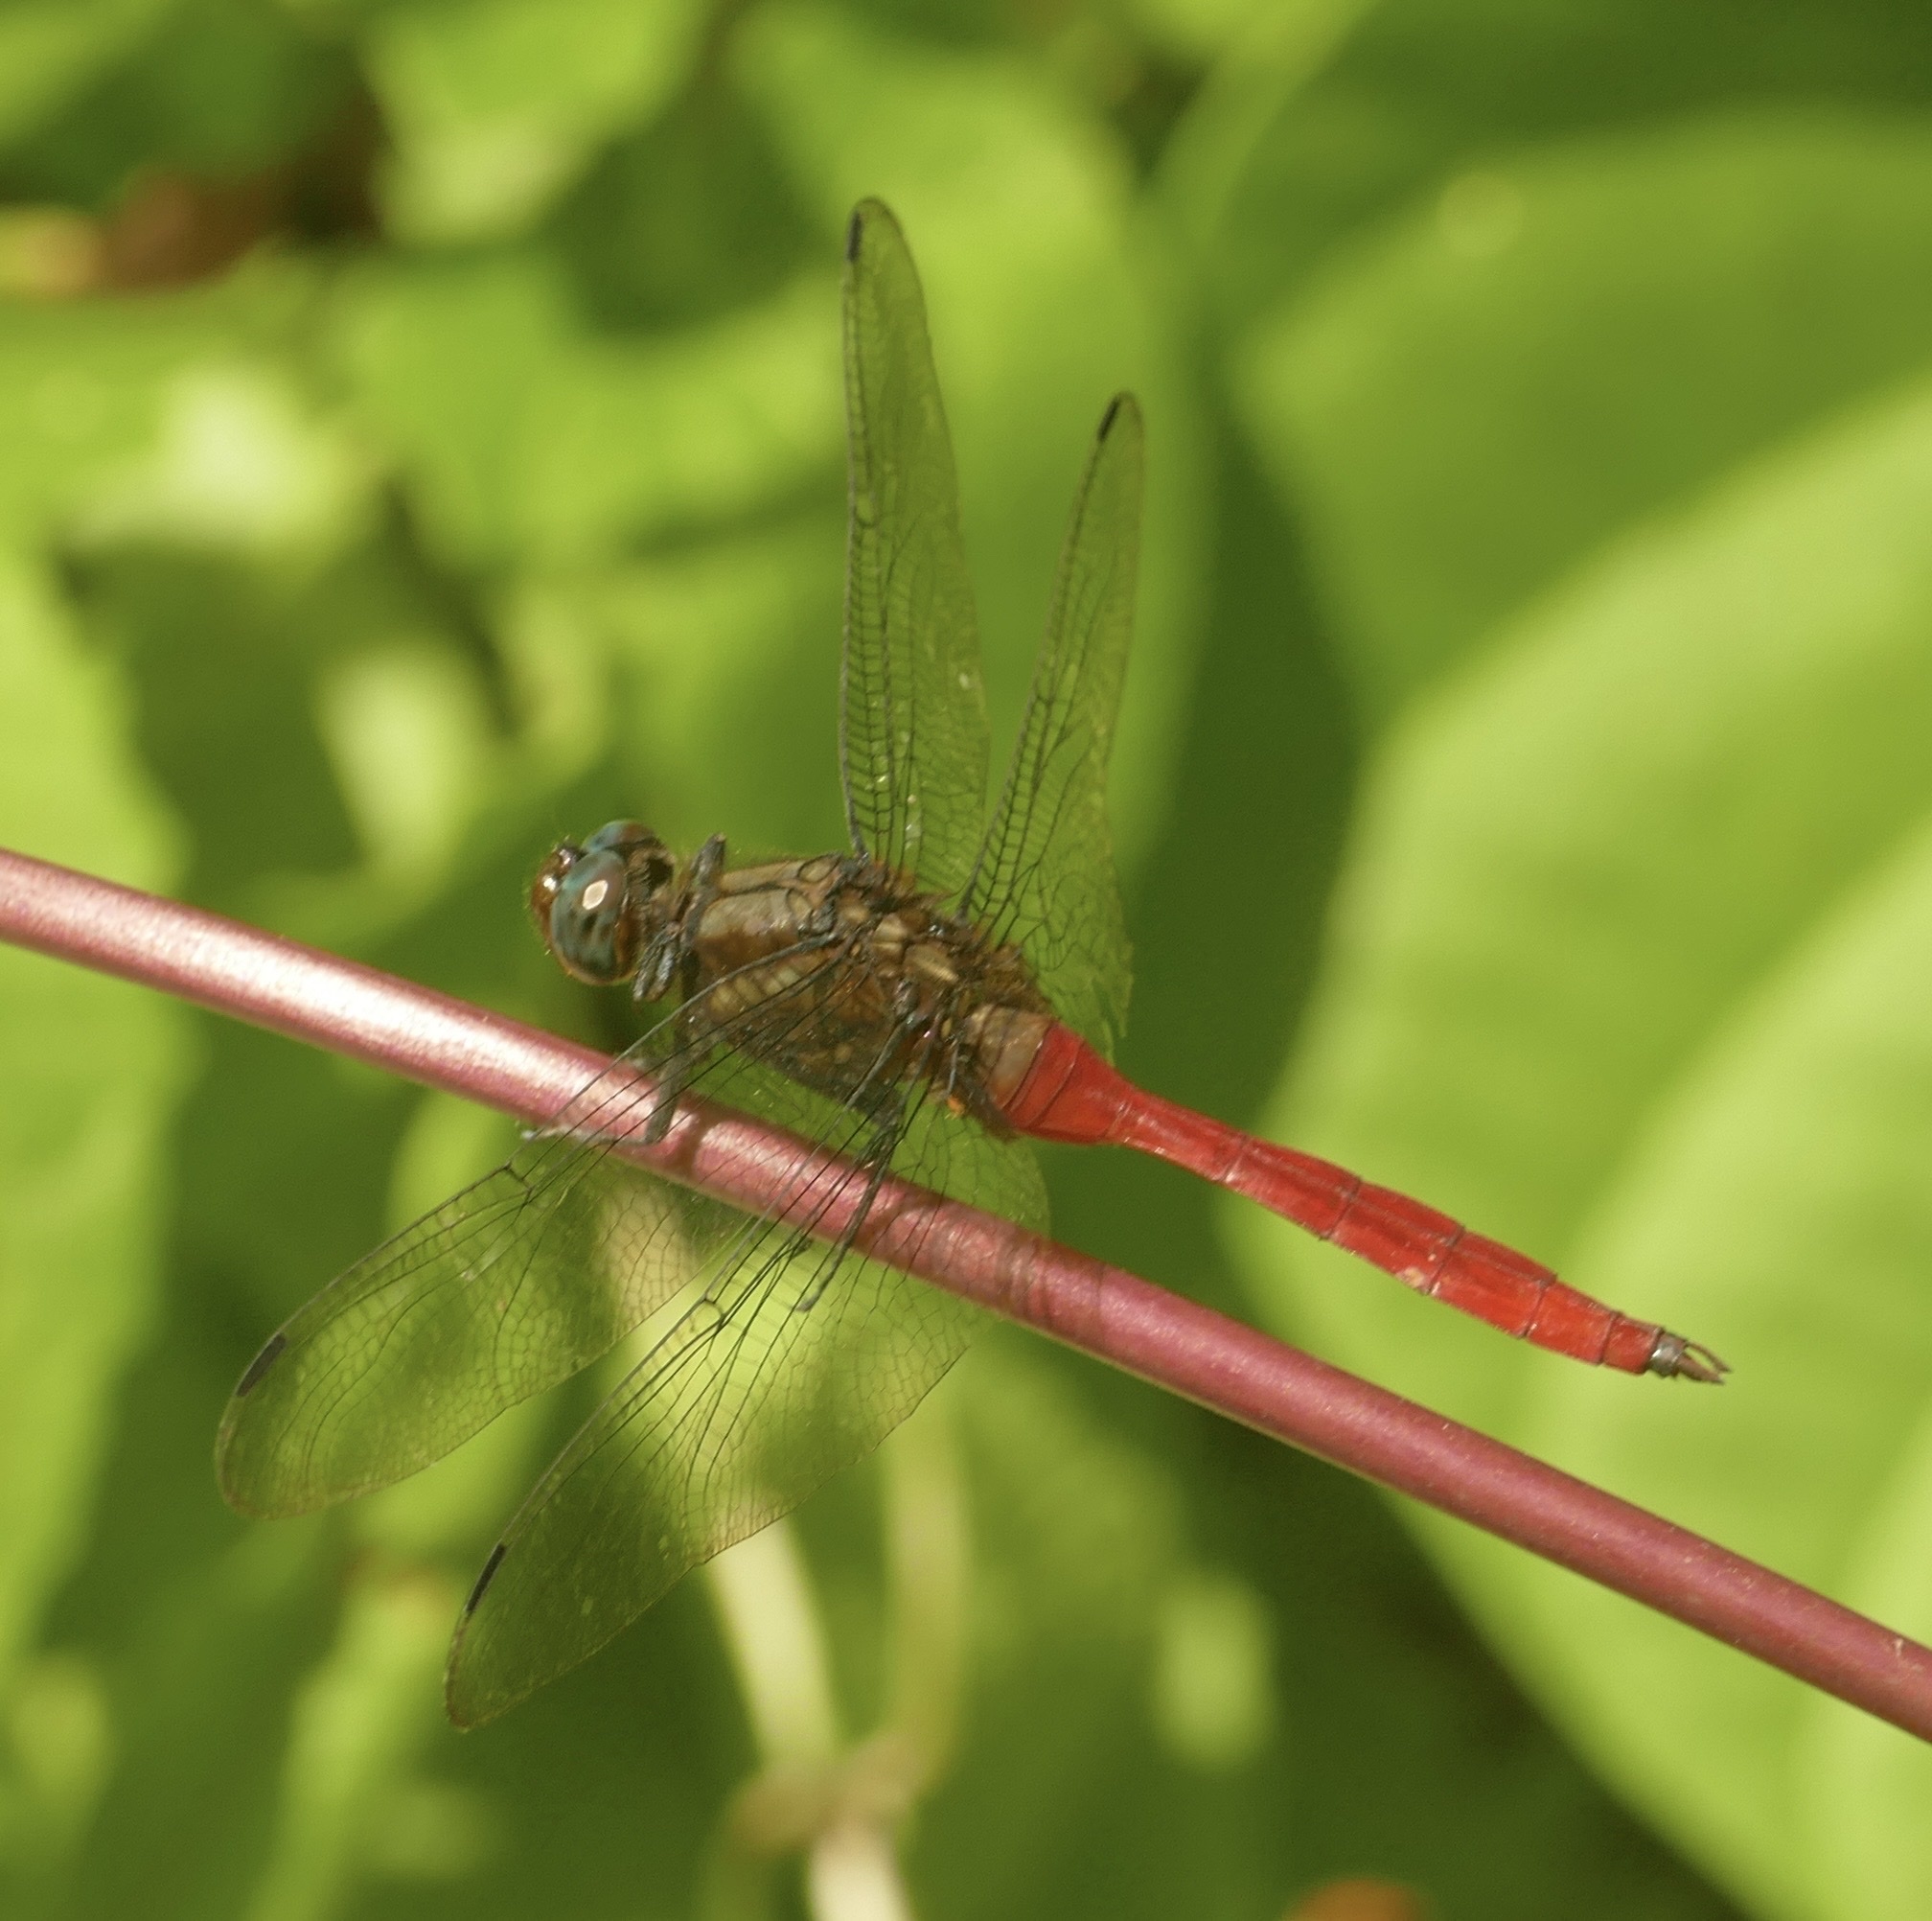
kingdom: Animalia
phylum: Arthropoda
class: Insecta
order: Odonata
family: Libellulidae
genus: Orthetrum
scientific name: Orthetrum villosovittatum
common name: Firery skimmer
